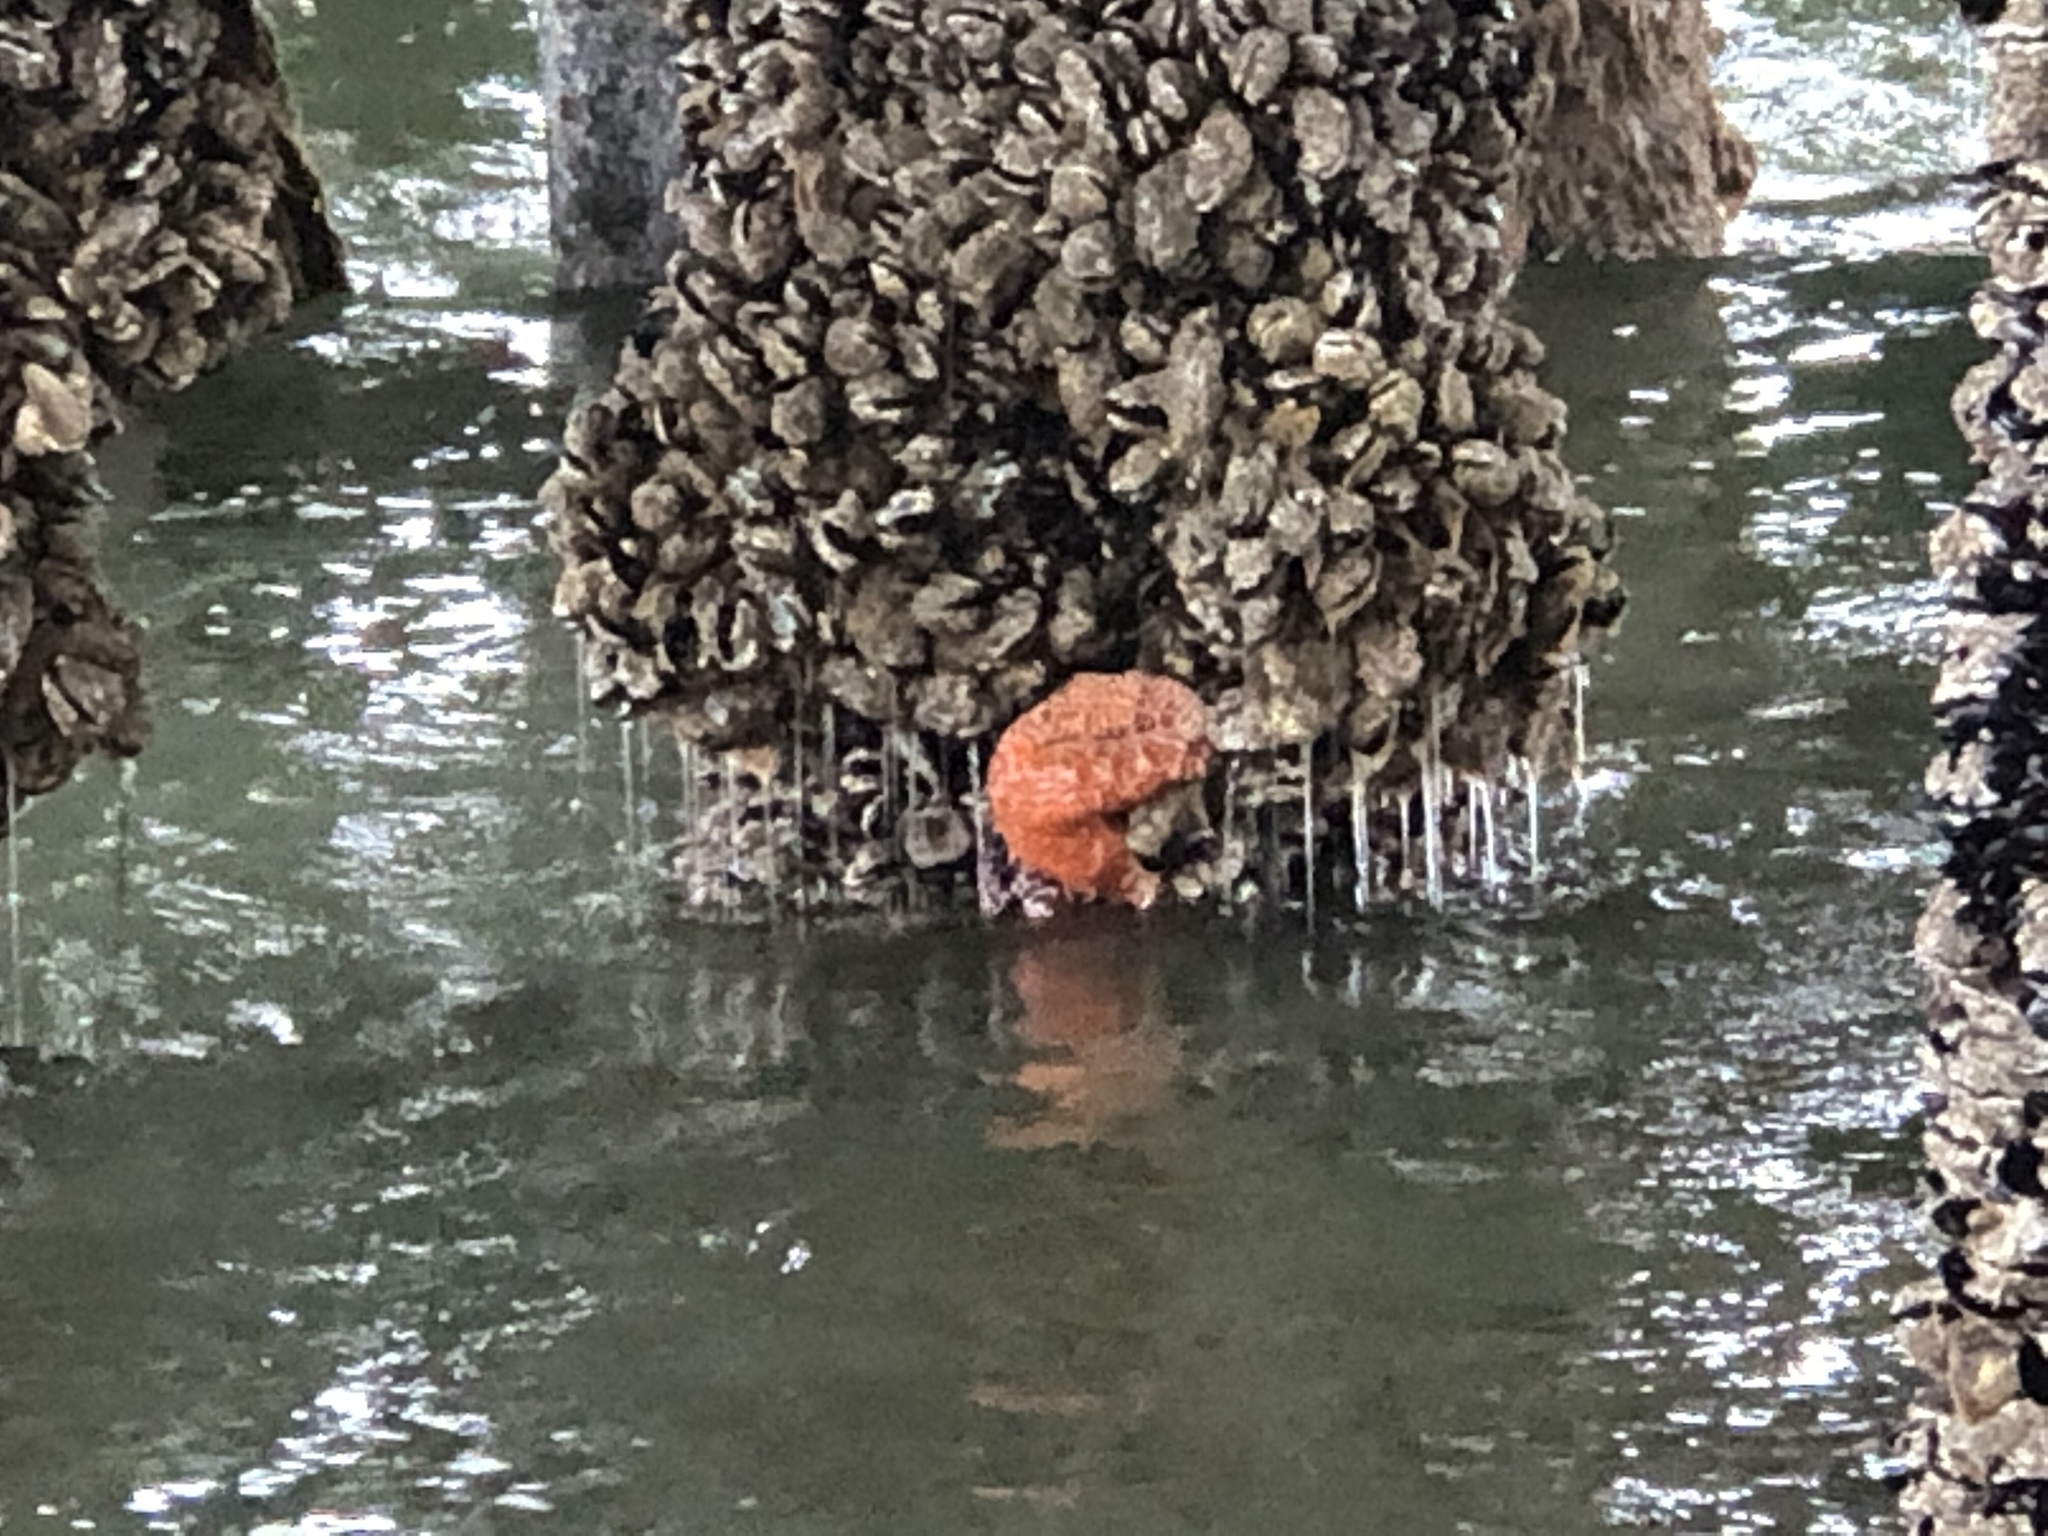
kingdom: Animalia
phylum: Echinodermata
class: Asteroidea
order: Forcipulatida
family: Asteriidae
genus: Pisaster
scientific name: Pisaster ochraceus
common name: Ochre stars
